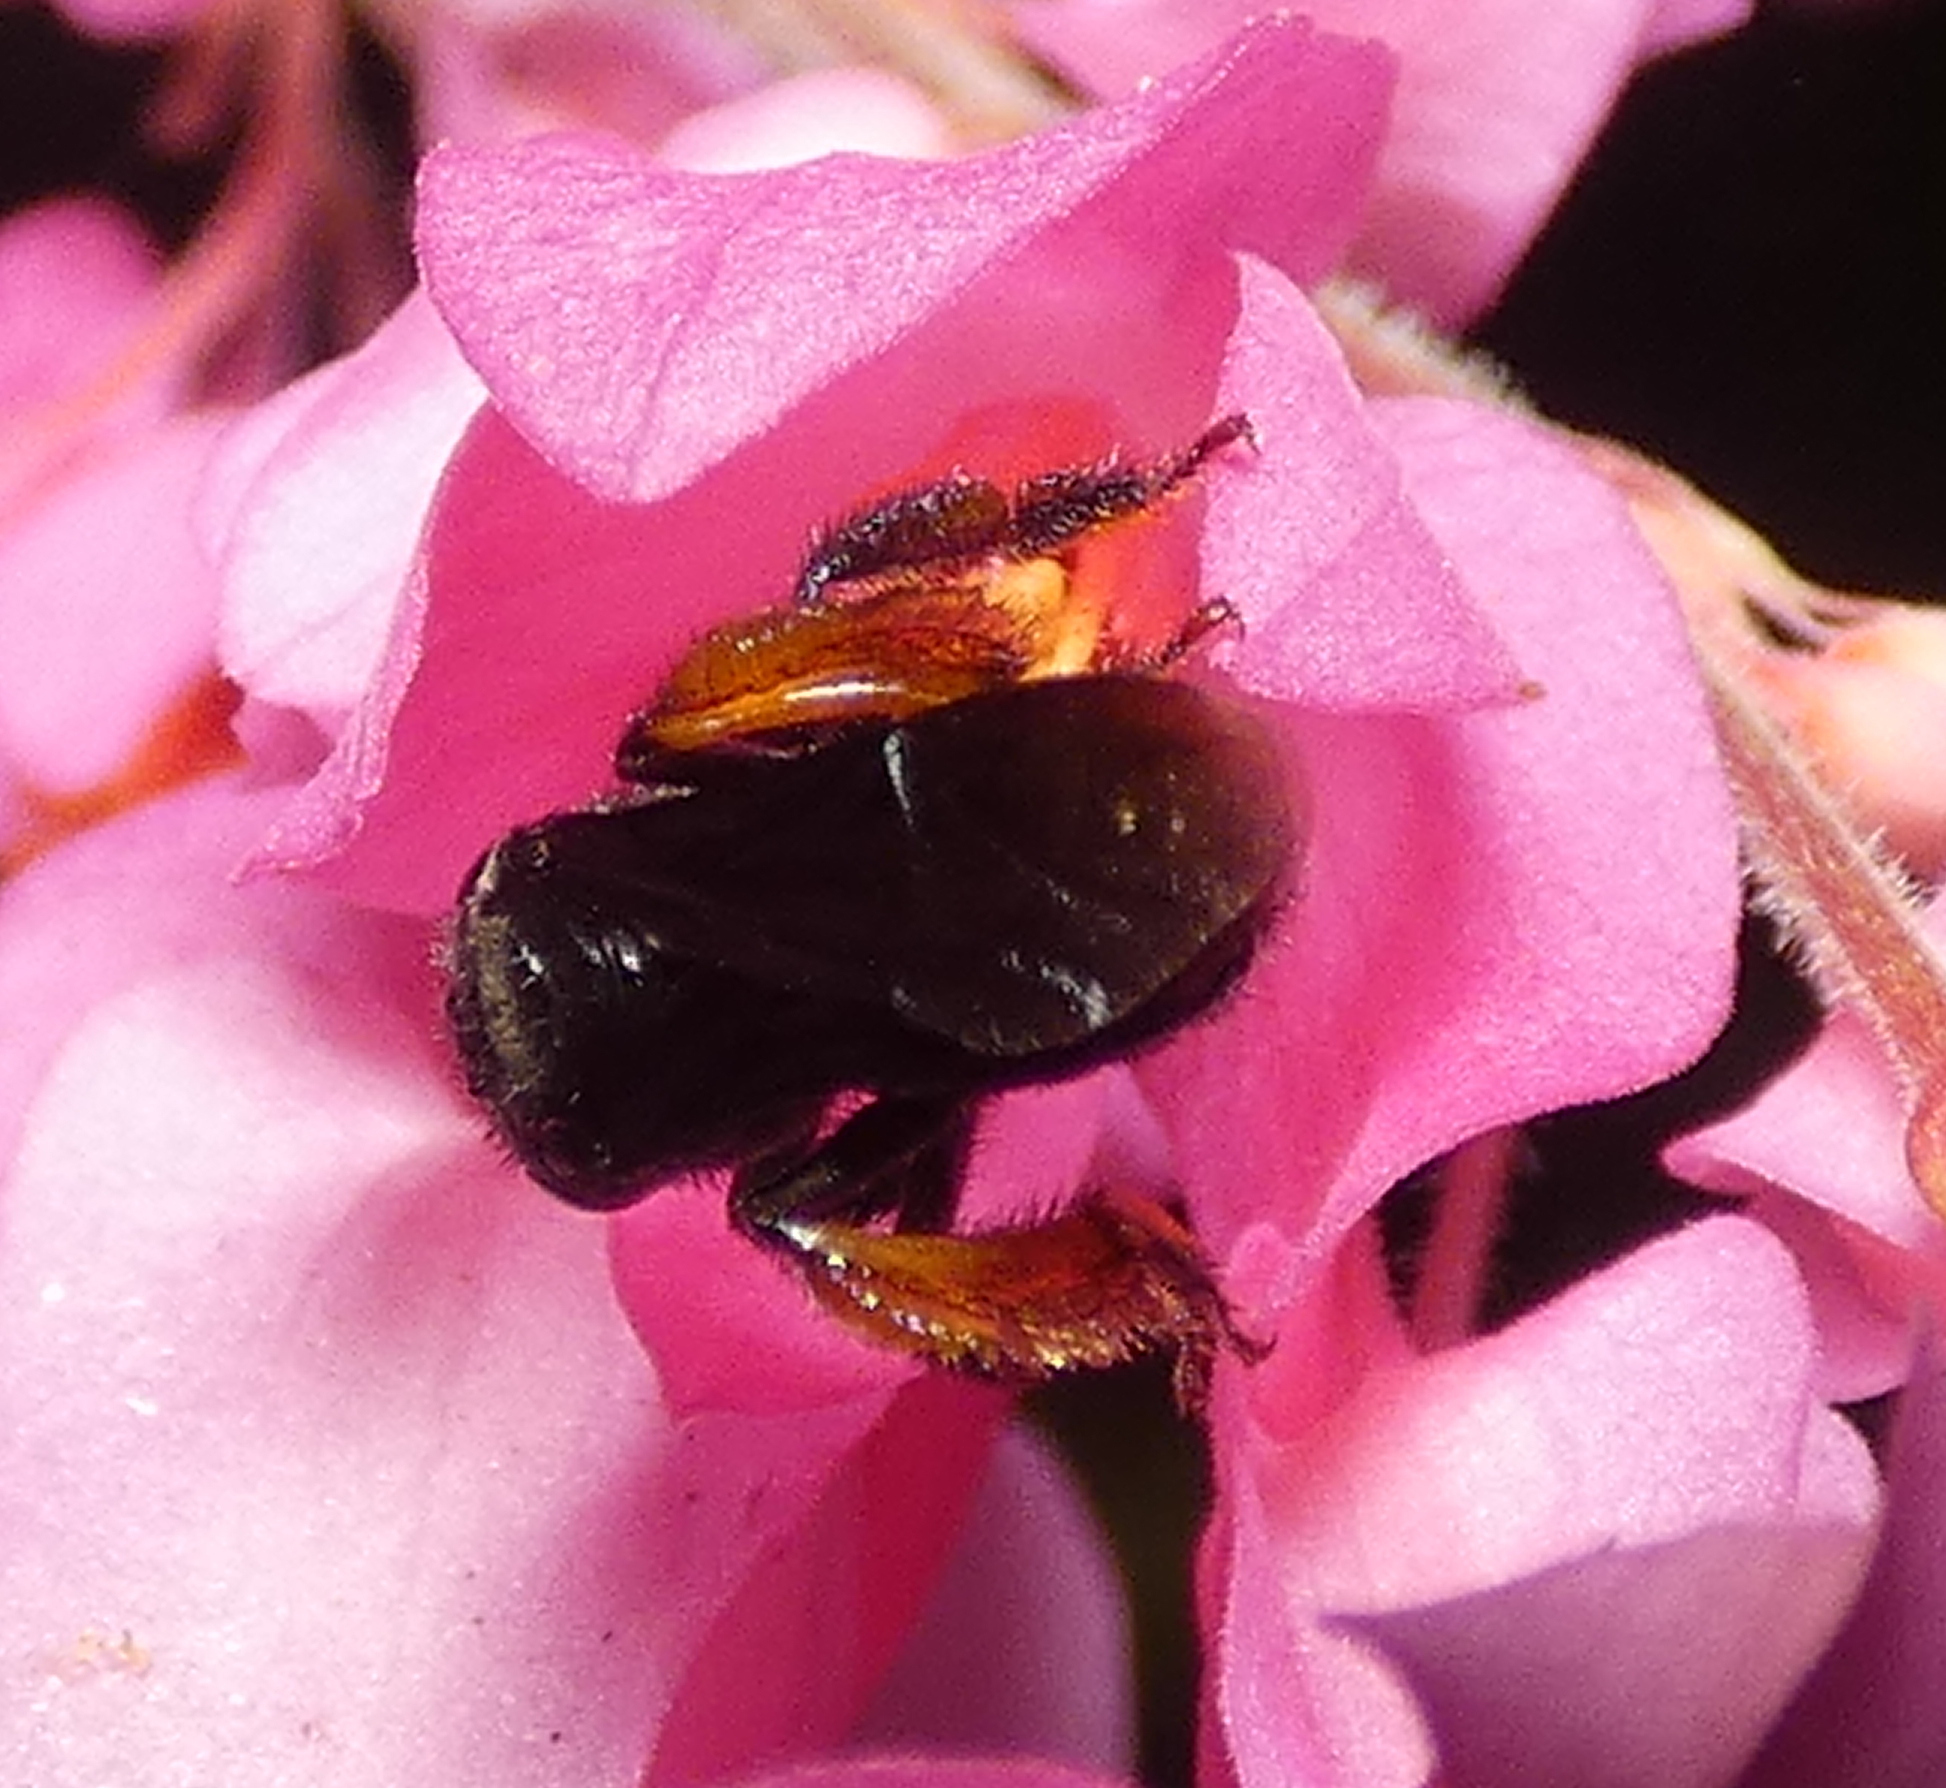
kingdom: Animalia
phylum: Arthropoda
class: Insecta
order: Hymenoptera
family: Apidae
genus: Trigona
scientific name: Trigona spinipes
